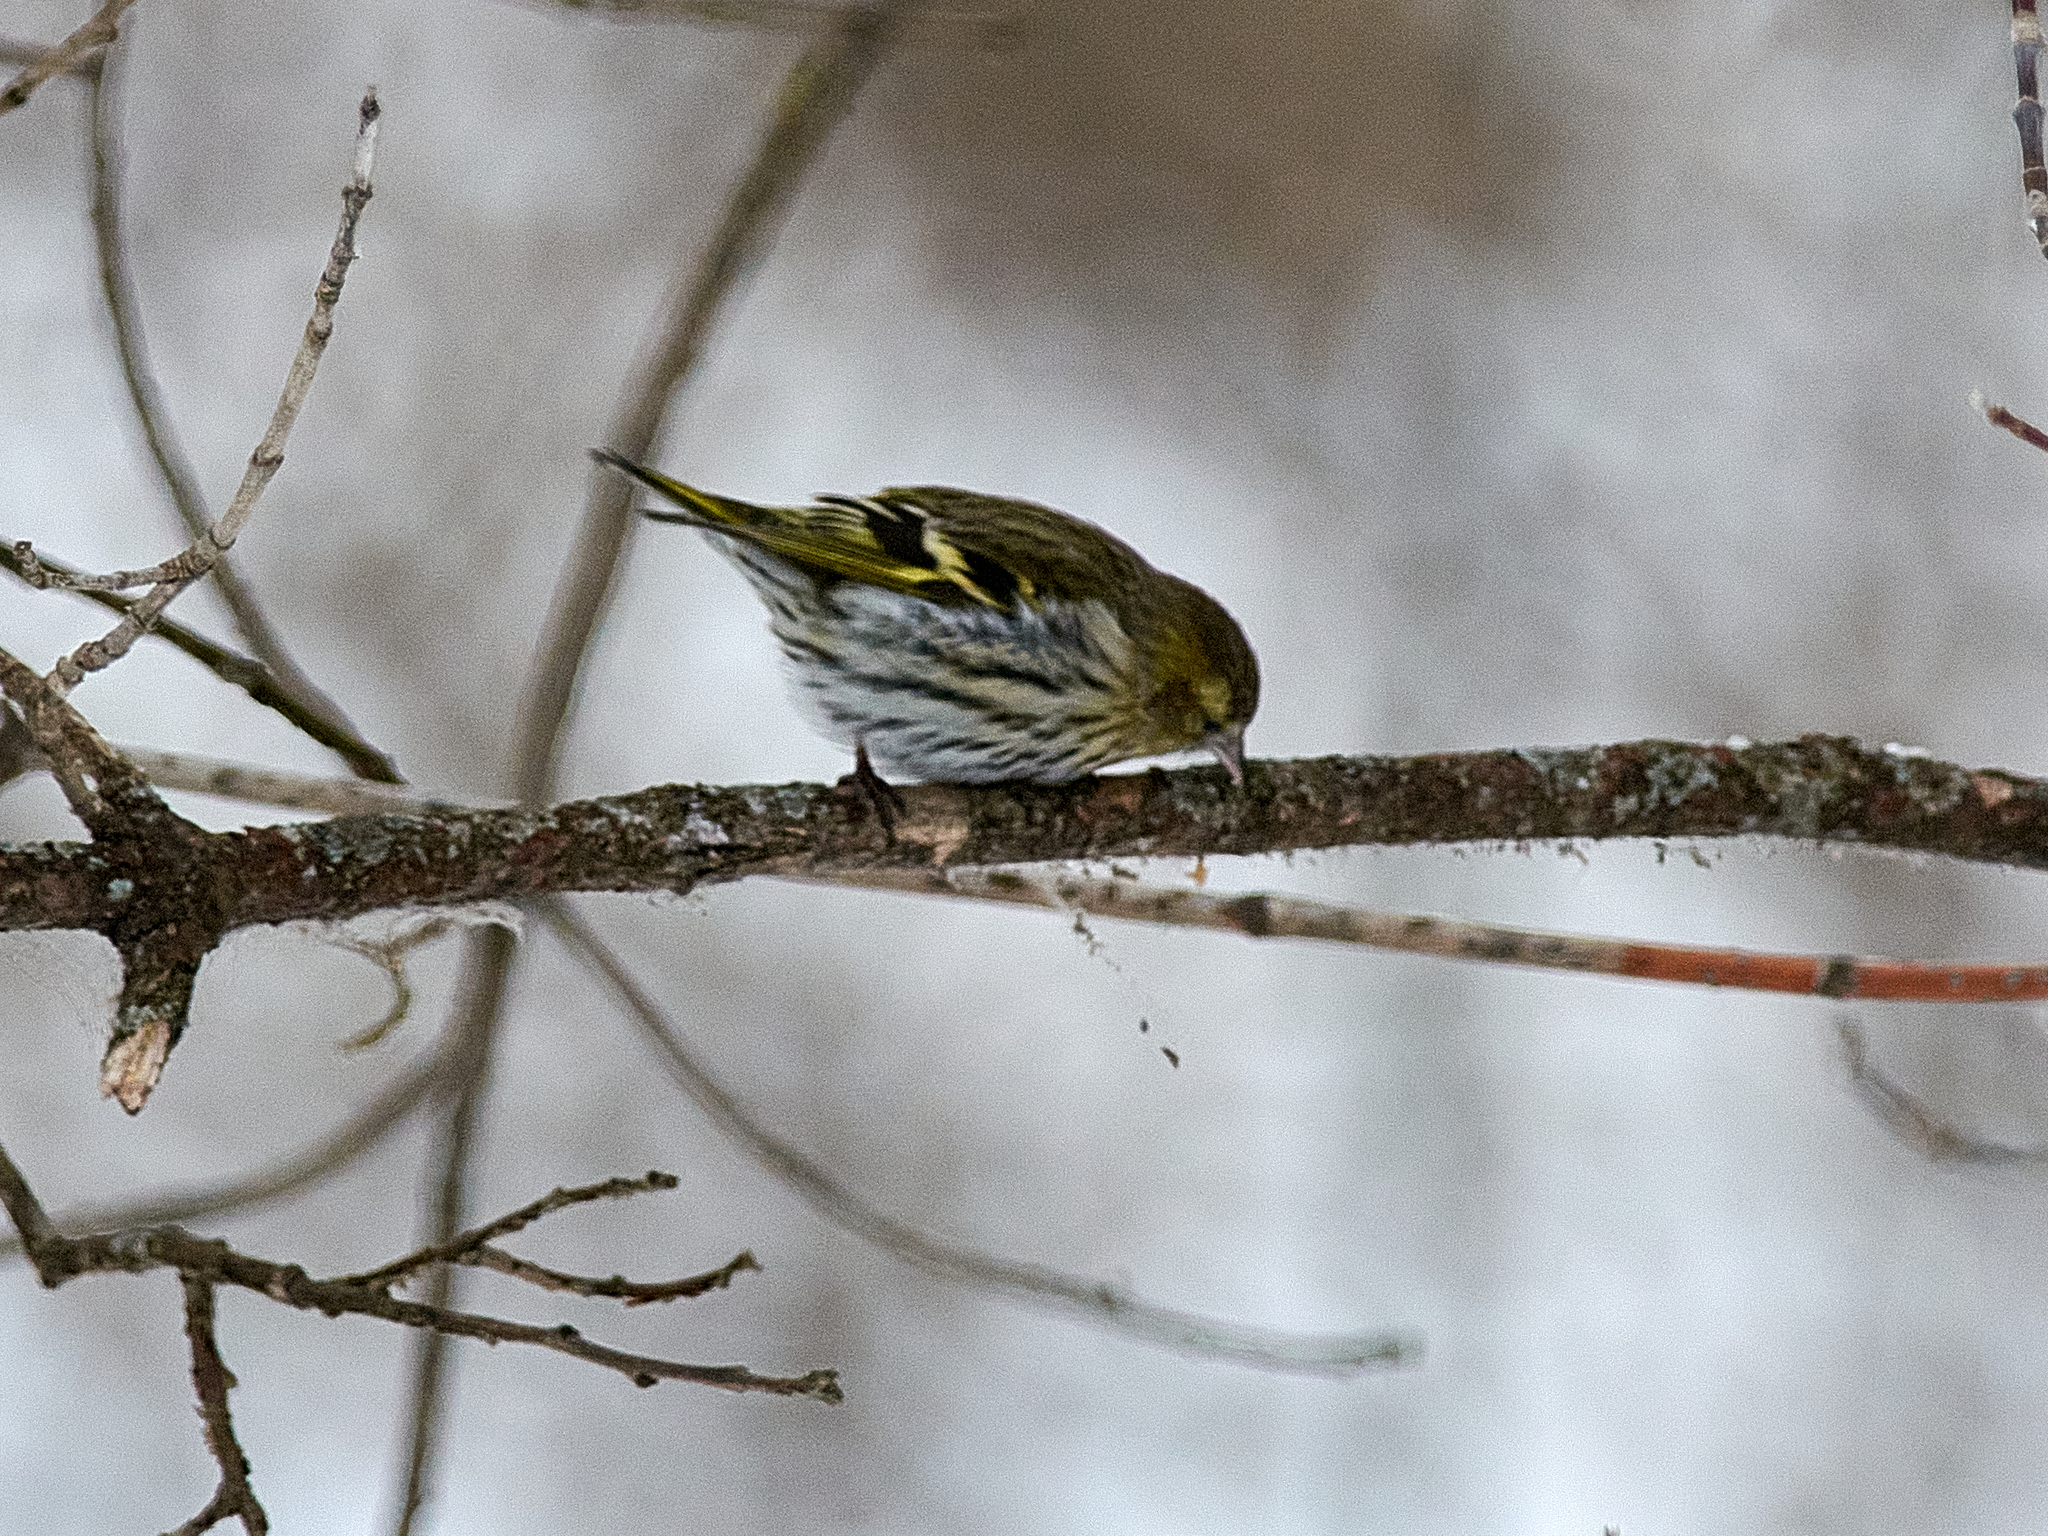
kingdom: Animalia
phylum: Chordata
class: Aves
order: Passeriformes
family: Fringillidae
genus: Spinus
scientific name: Spinus spinus
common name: Eurasian siskin
